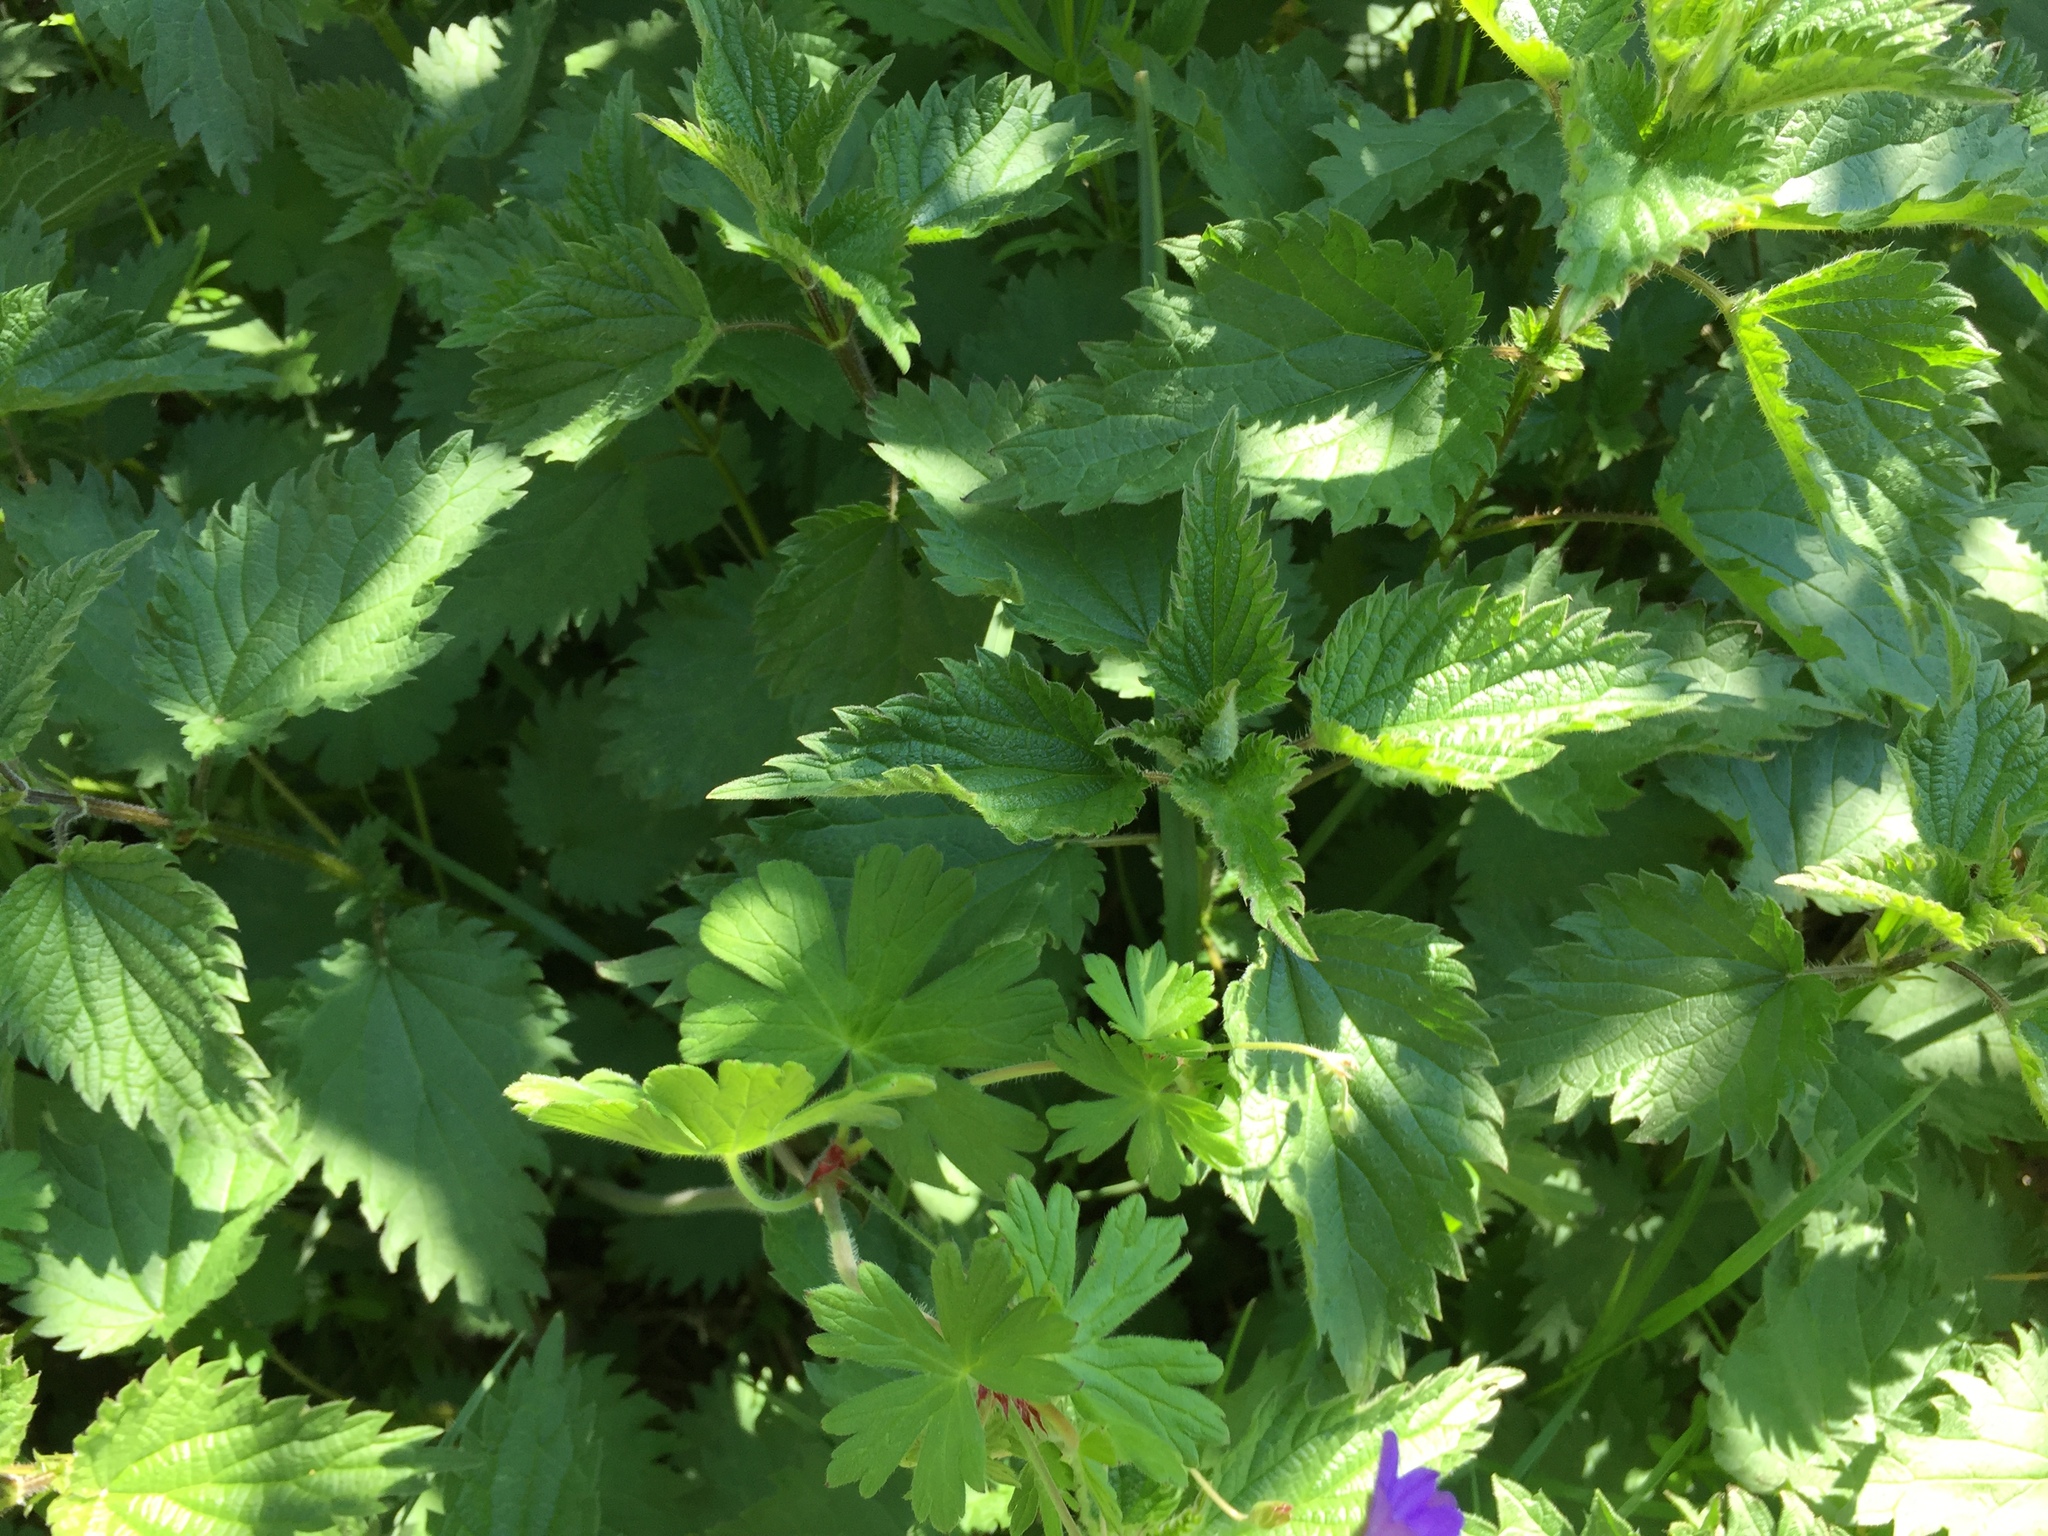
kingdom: Plantae
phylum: Tracheophyta
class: Magnoliopsida
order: Rosales
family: Urticaceae
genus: Urtica
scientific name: Urtica dioica
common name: Common nettle
